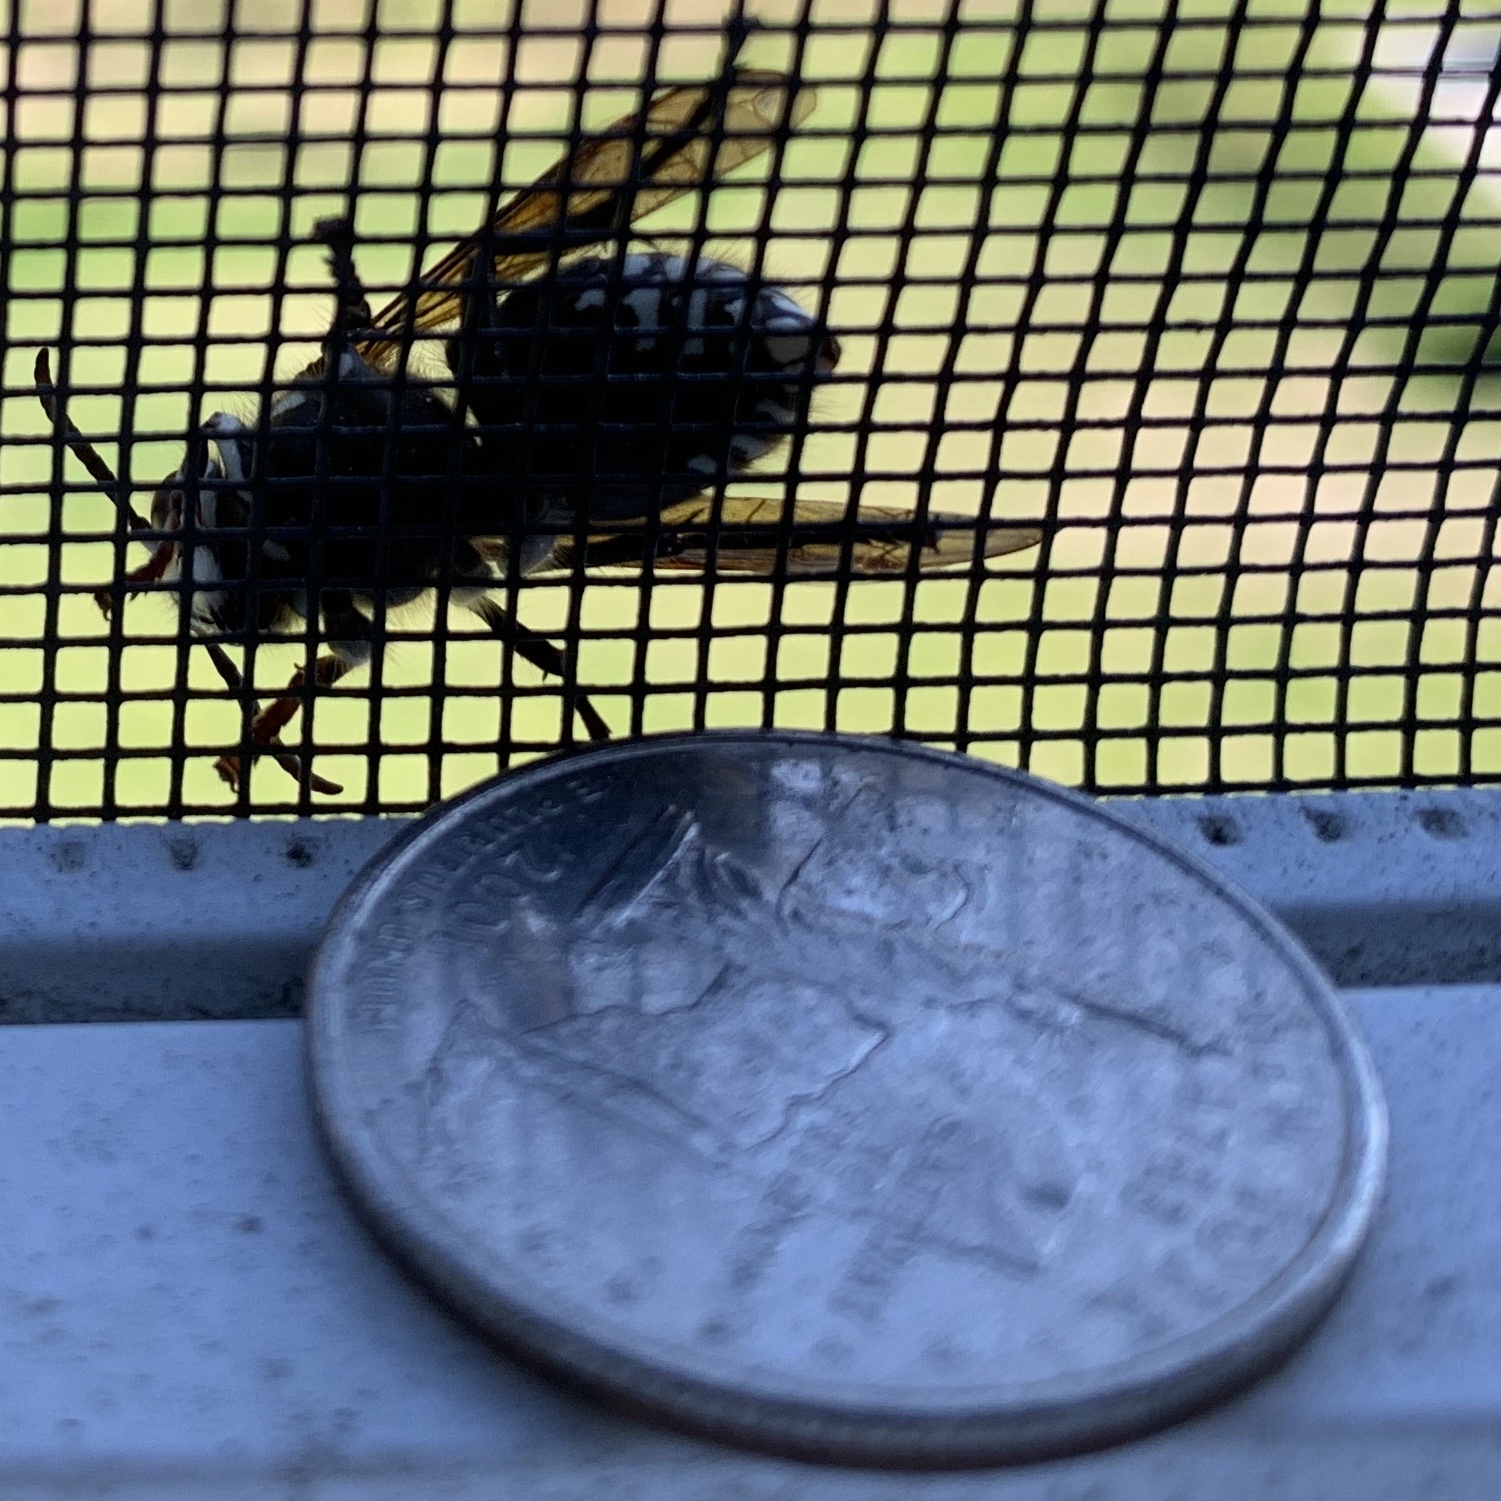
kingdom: Animalia
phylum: Arthropoda
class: Insecta
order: Hymenoptera
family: Vespidae
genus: Dolichovespula
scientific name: Dolichovespula maculata
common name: Bald-faced hornet
